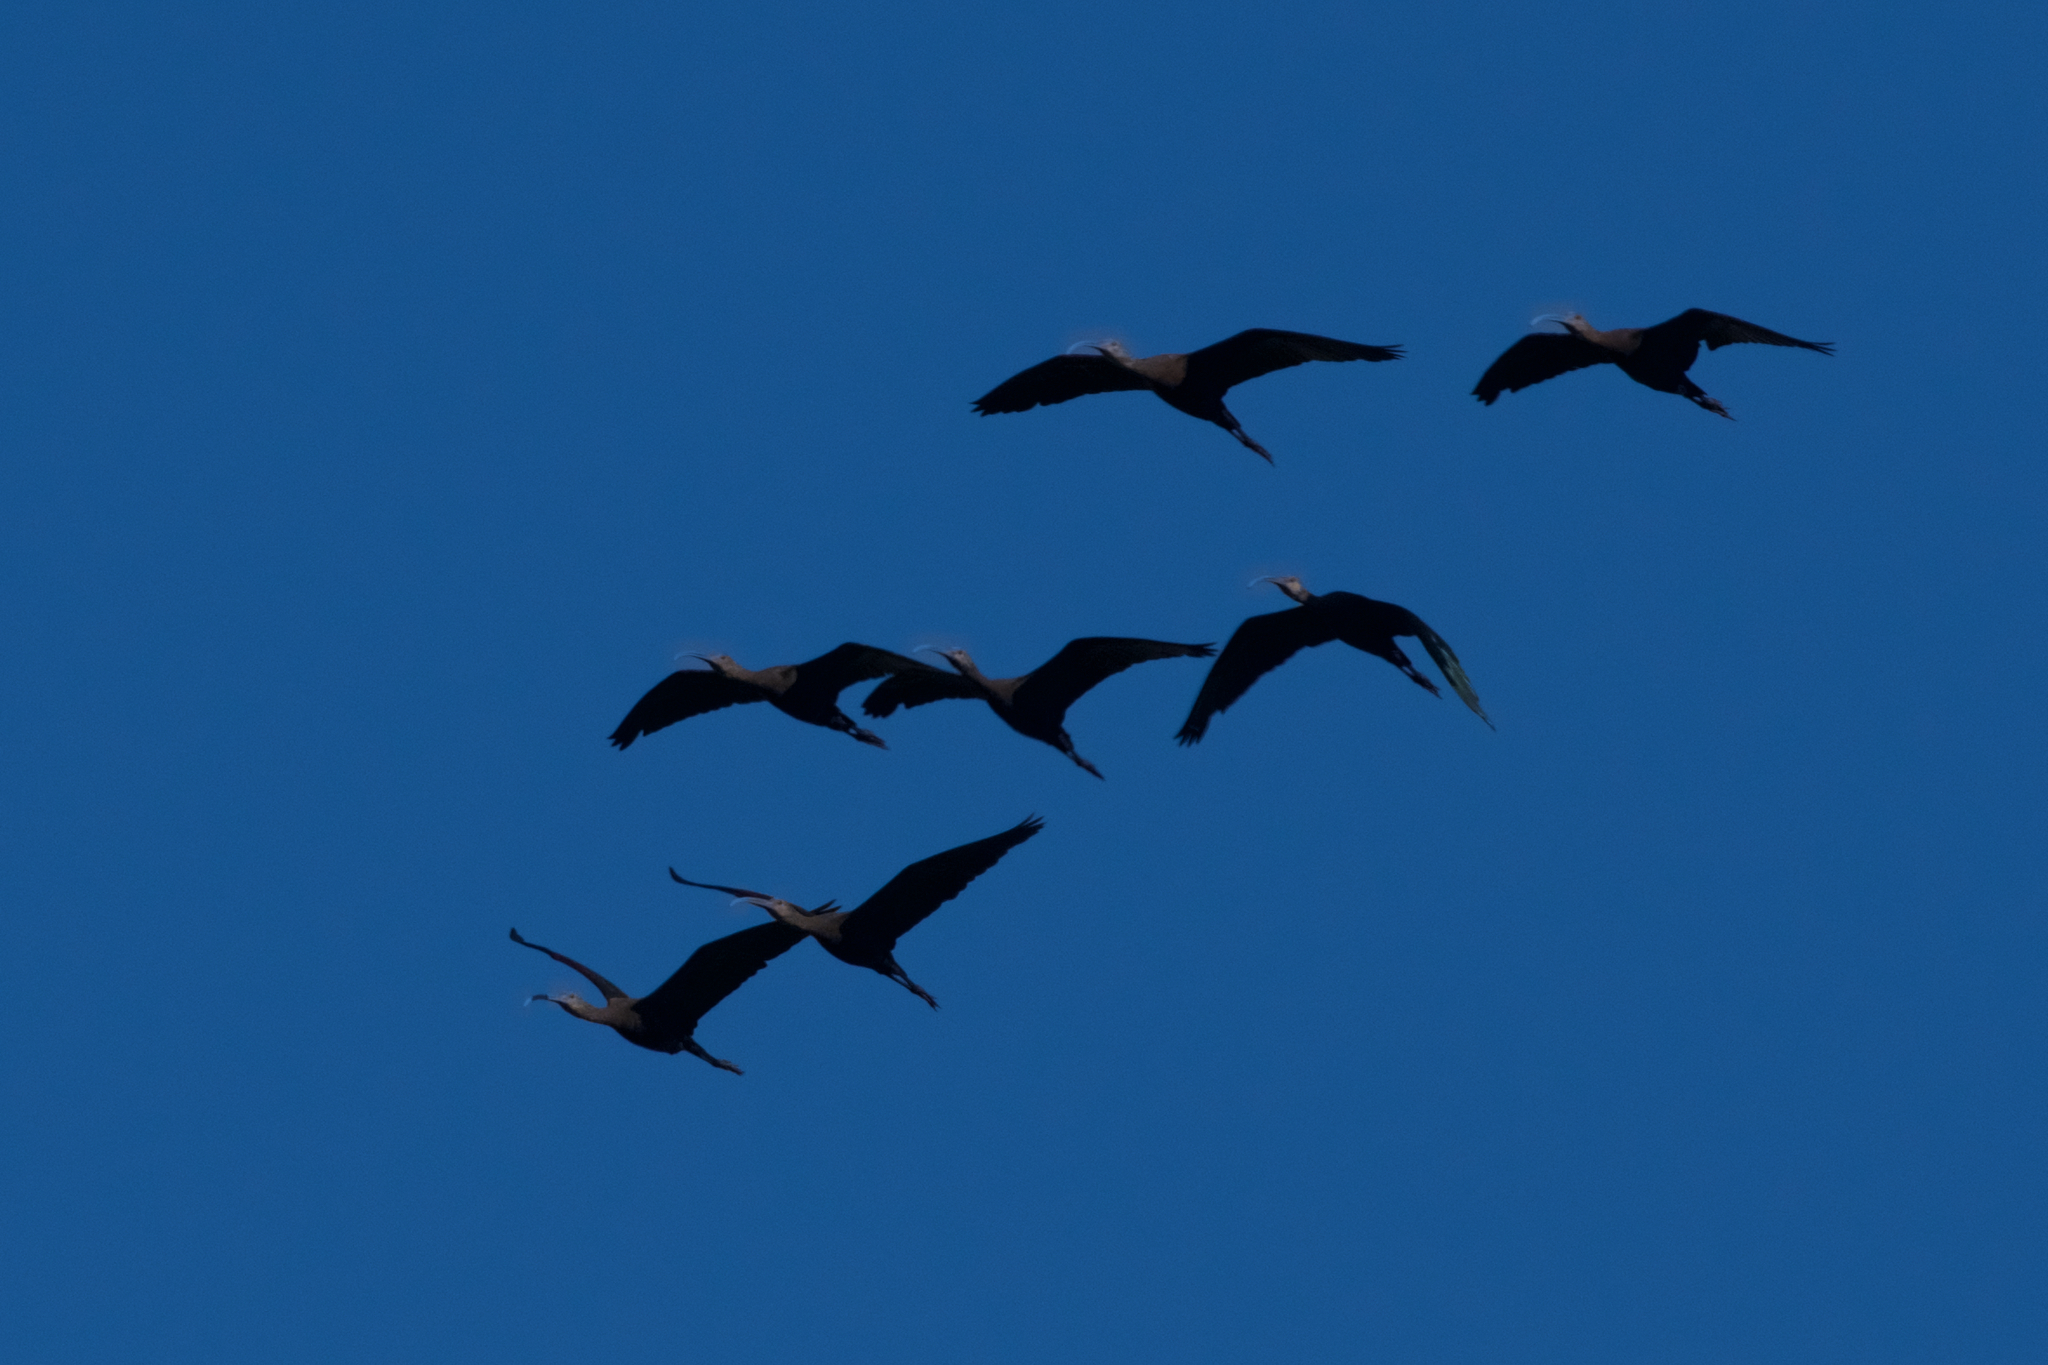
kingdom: Animalia
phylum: Chordata
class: Aves
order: Pelecaniformes
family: Threskiornithidae
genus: Plegadis
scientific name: Plegadis chihi
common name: White-faced ibis
